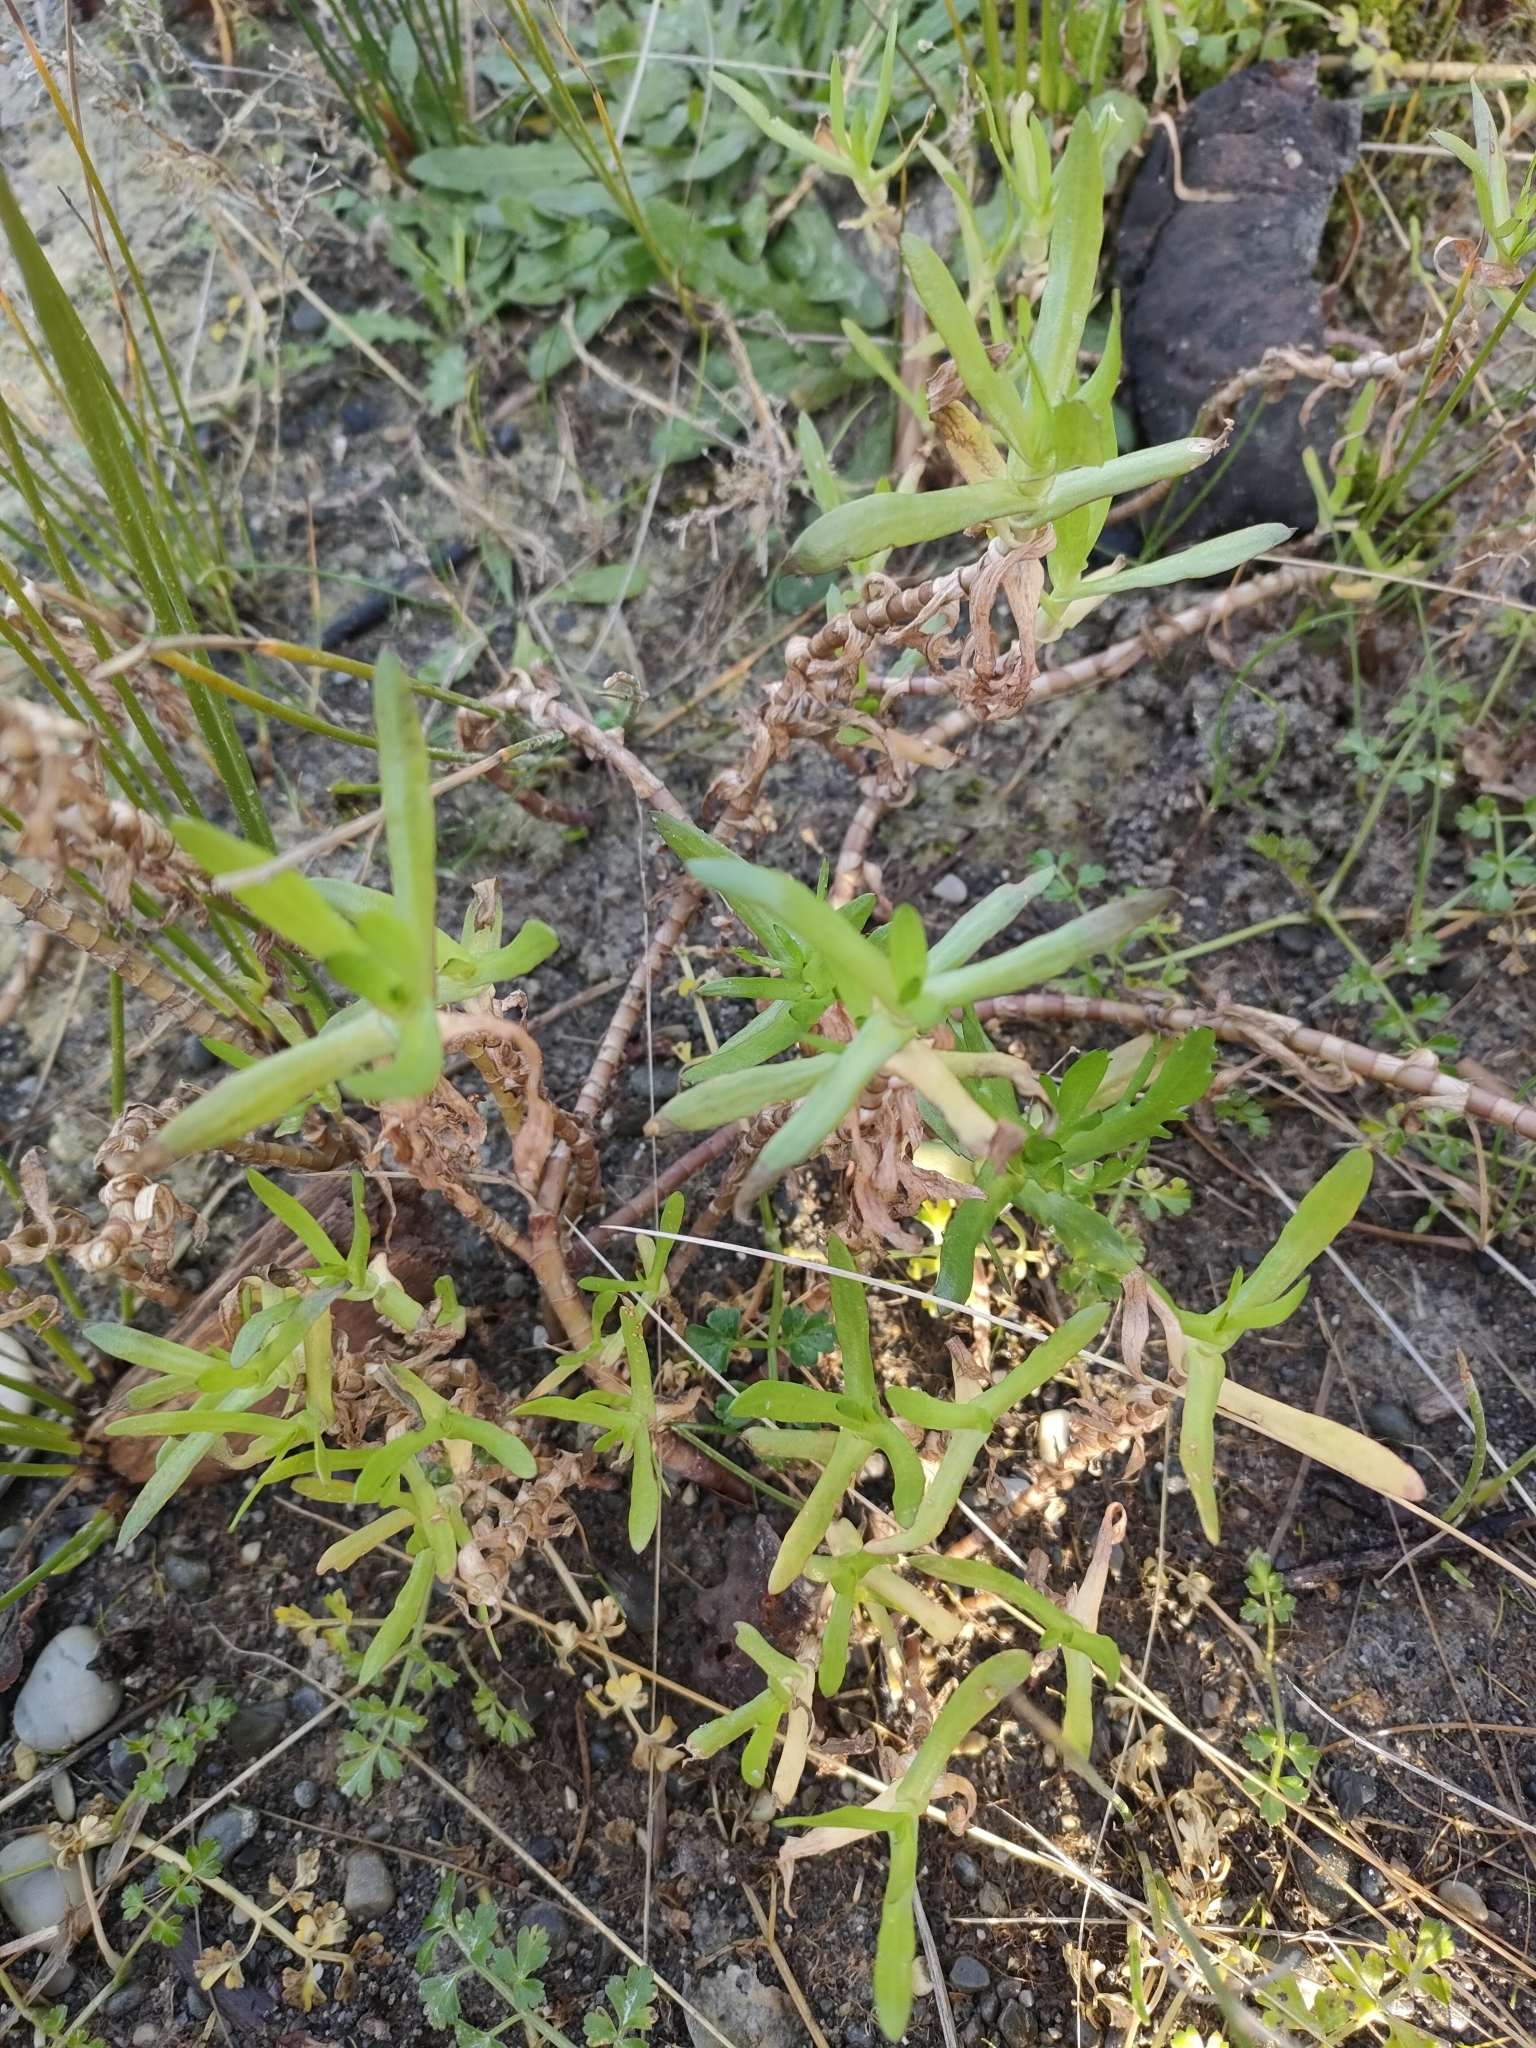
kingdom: Plantae
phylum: Tracheophyta
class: Magnoliopsida
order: Asterales
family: Asteraceae
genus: Cotula
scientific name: Cotula coronopifolia
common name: Buttonweed
